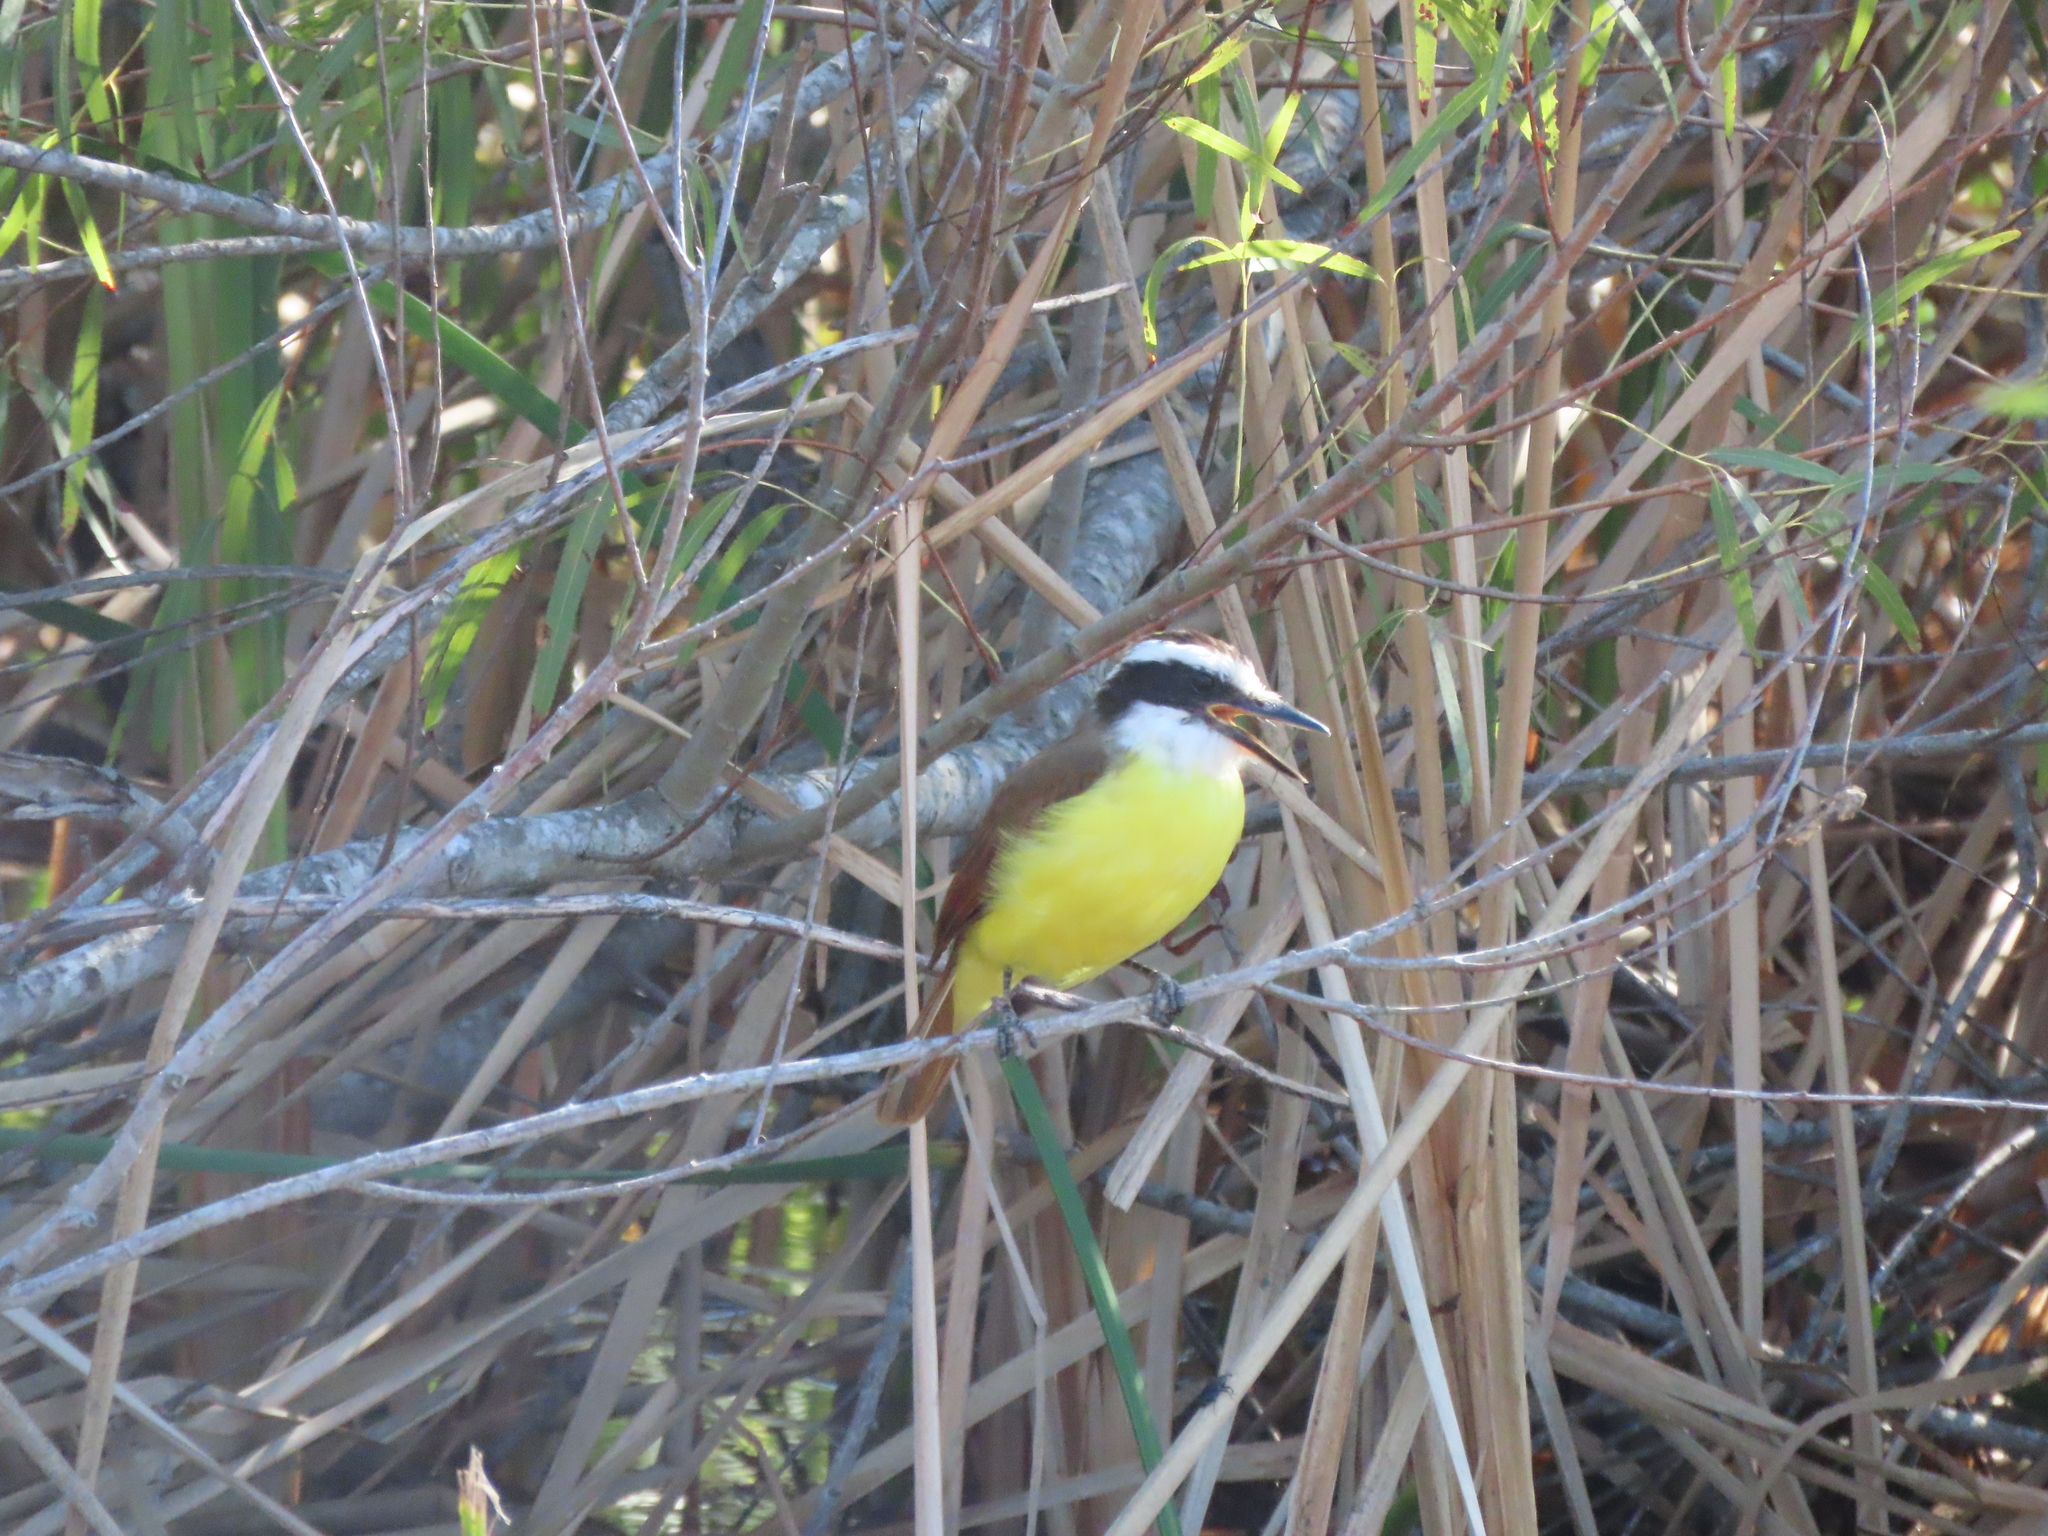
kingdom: Animalia
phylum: Chordata
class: Aves
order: Passeriformes
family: Tyrannidae
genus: Pitangus
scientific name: Pitangus sulphuratus
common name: Great kiskadee
